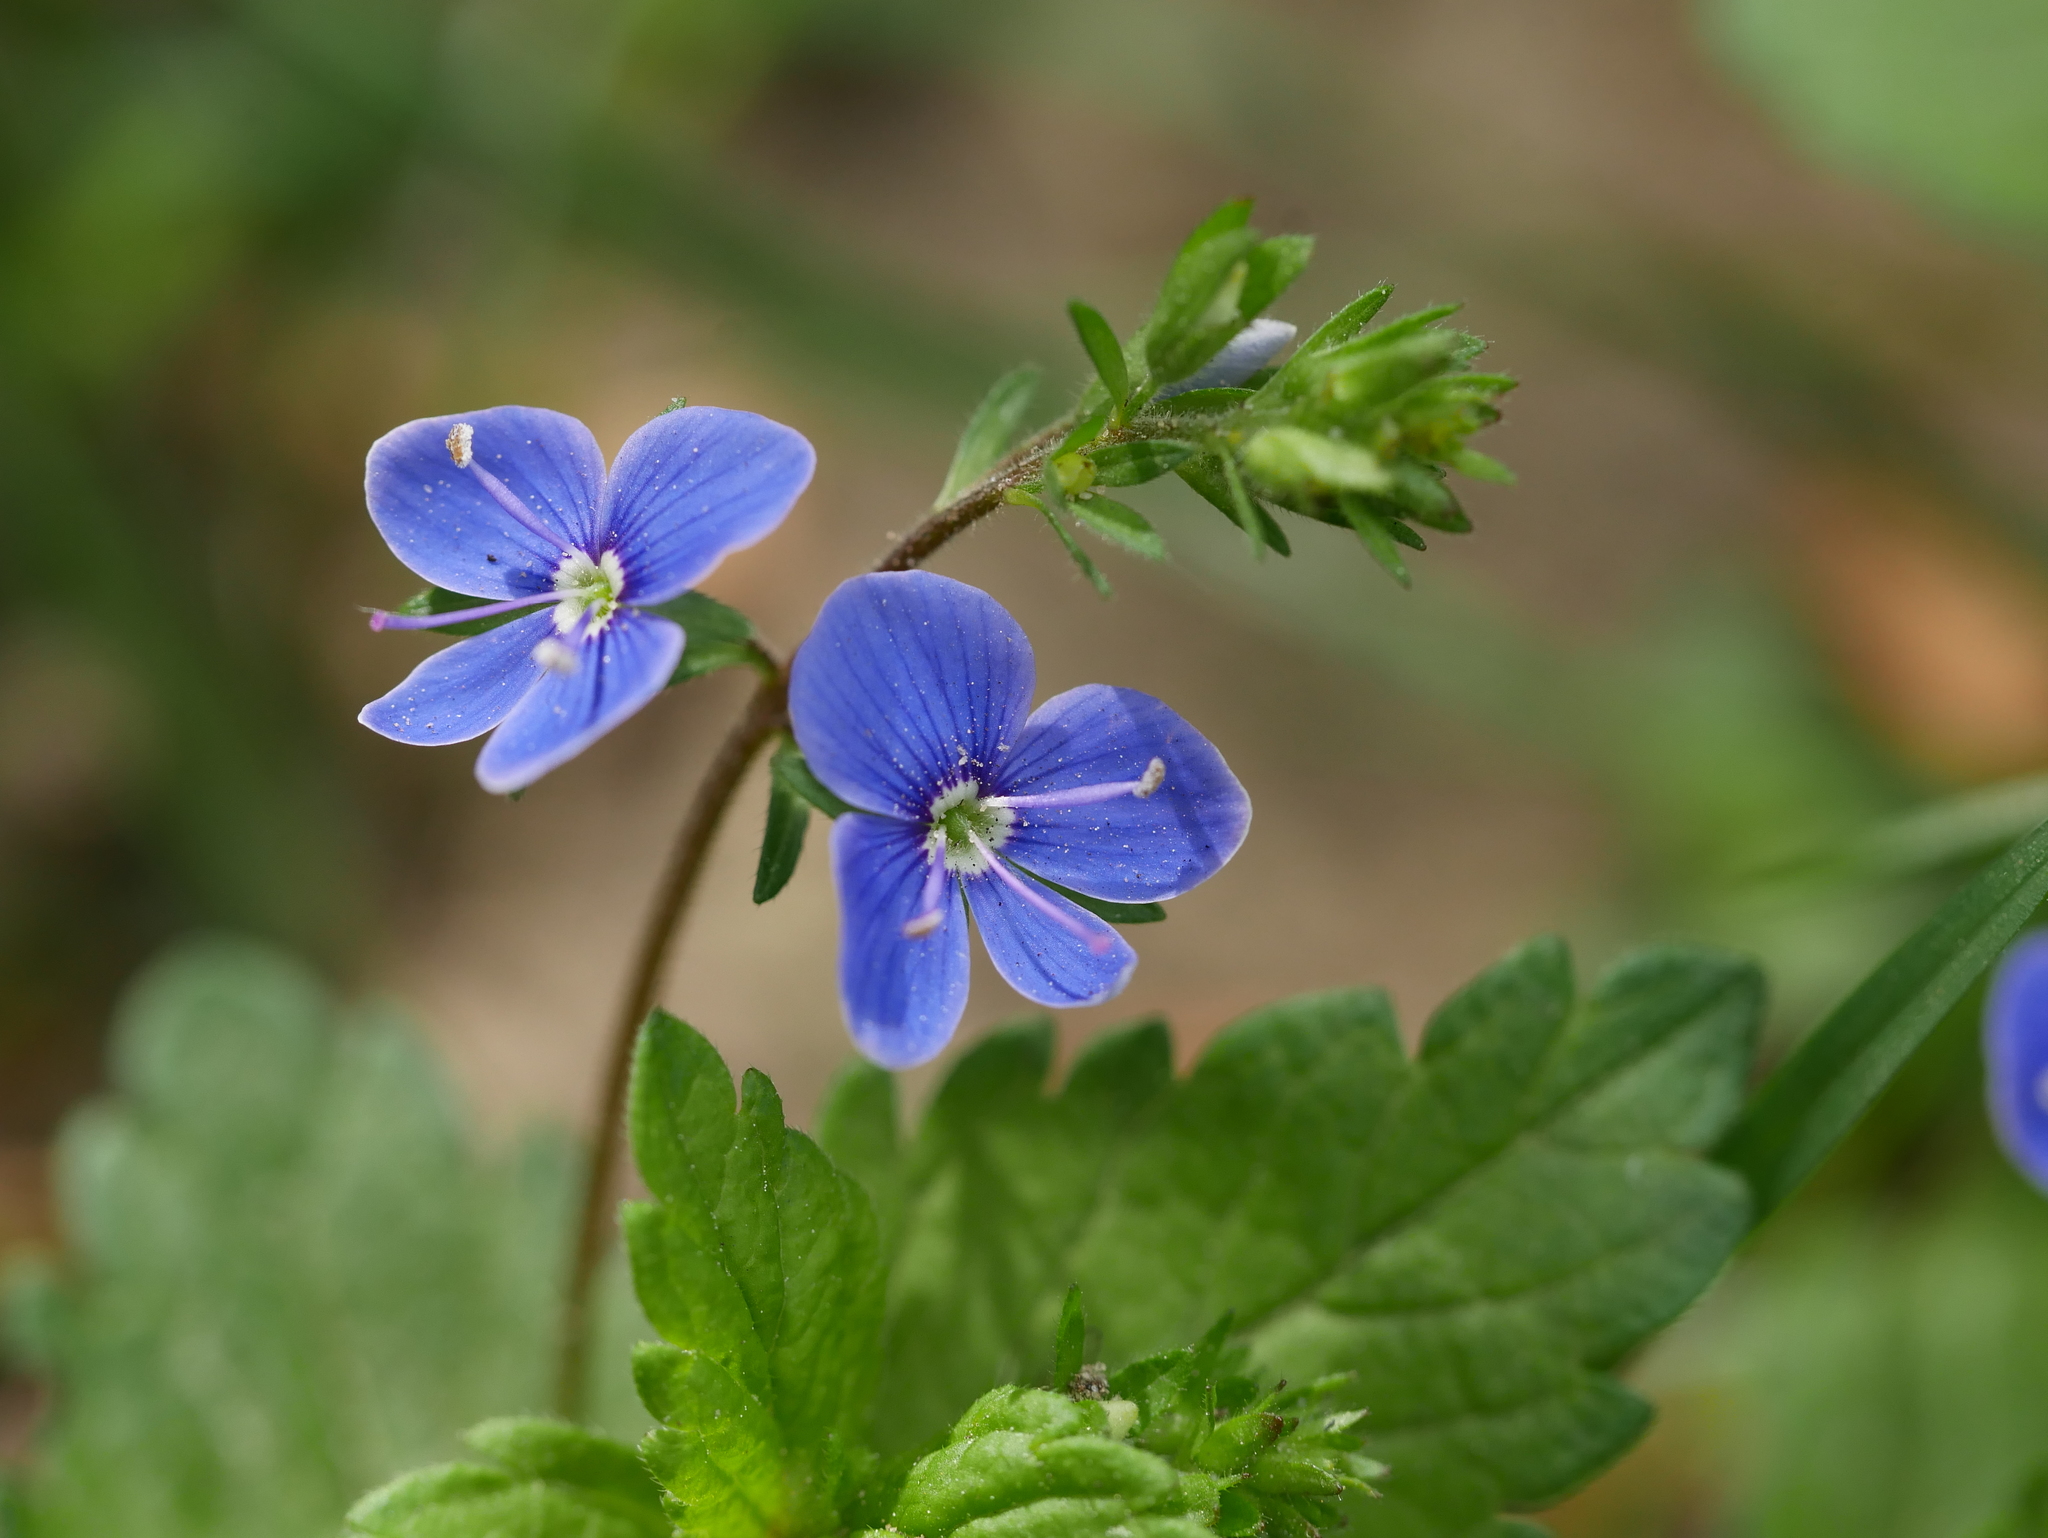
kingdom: Plantae
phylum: Tracheophyta
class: Magnoliopsida
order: Lamiales
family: Plantaginaceae
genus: Veronica
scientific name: Veronica chamaedrys
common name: Germander speedwell
